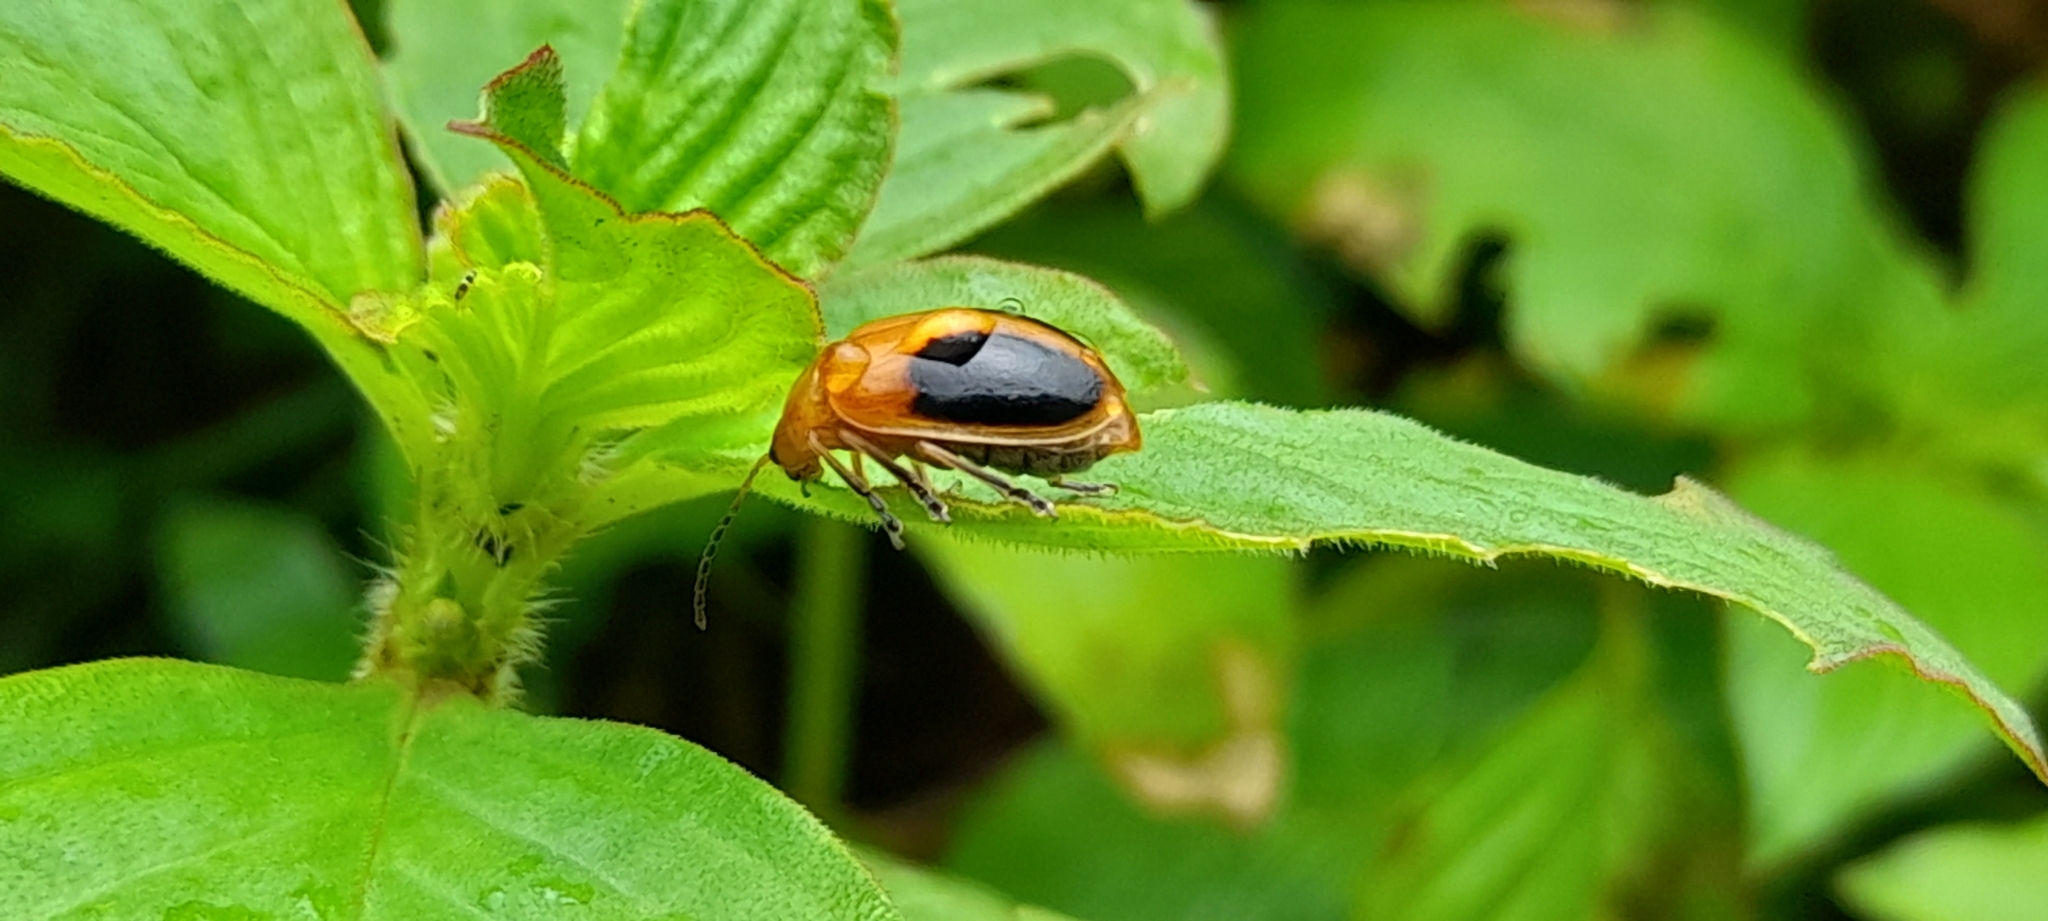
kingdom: Animalia
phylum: Arthropoda
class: Insecta
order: Coleoptera
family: Chrysomelidae
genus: Oides
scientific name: Oides affinis
